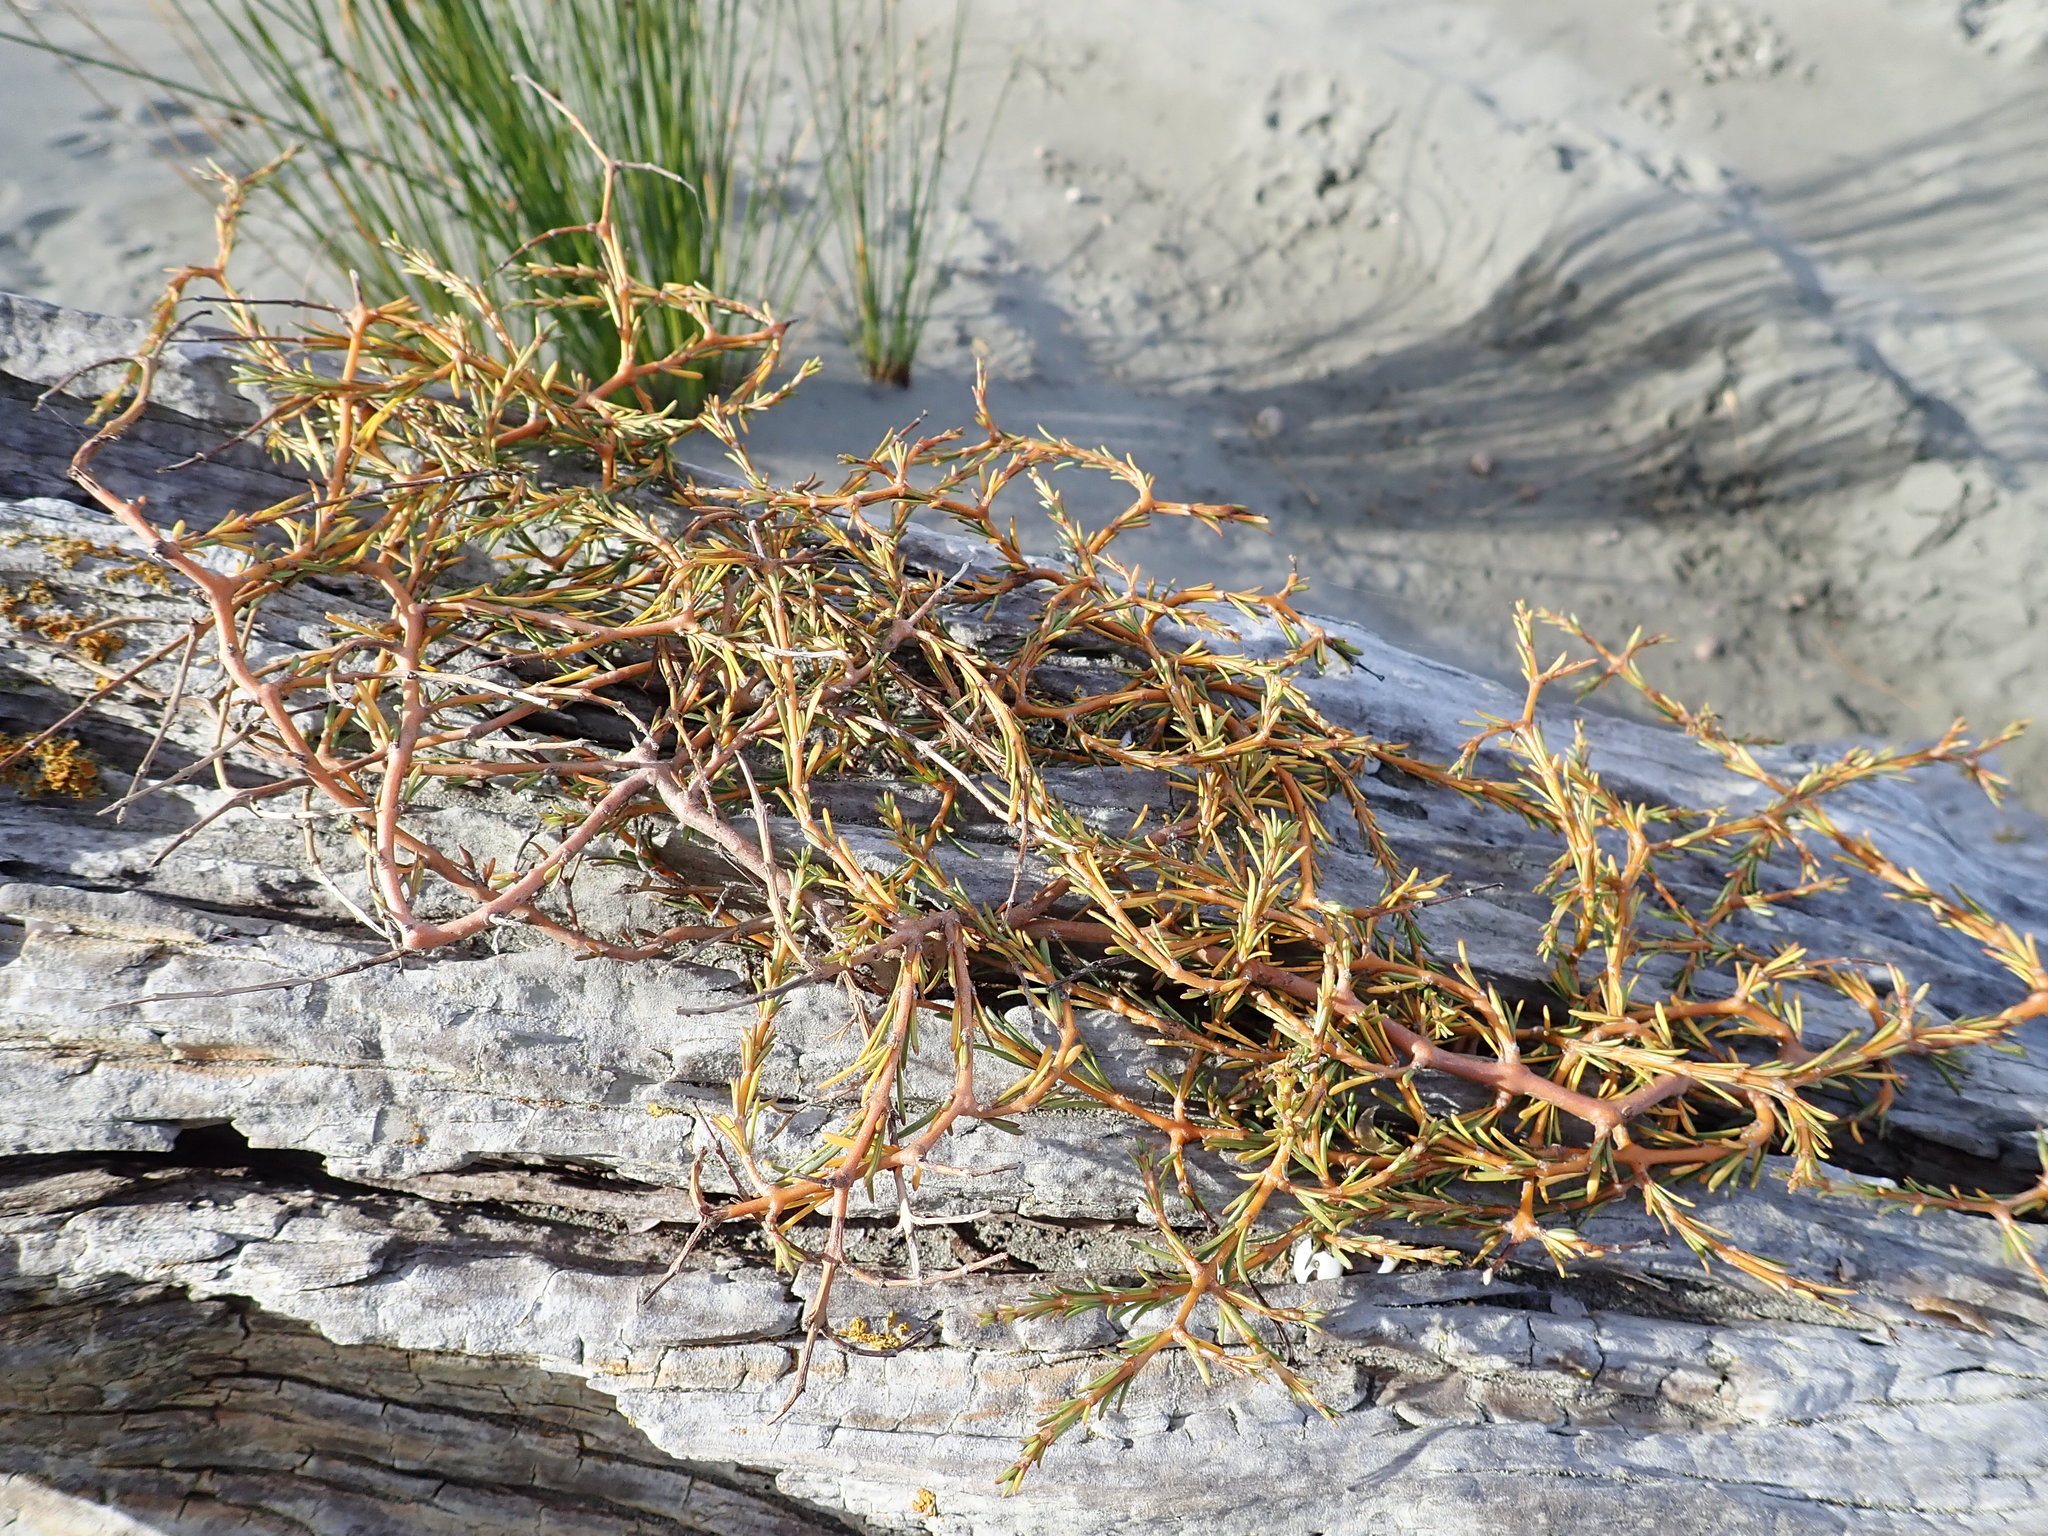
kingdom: Plantae
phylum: Tracheophyta
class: Magnoliopsida
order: Gentianales
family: Rubiaceae
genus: Coprosma
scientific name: Coprosma acerosa
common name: Sand coprosma
